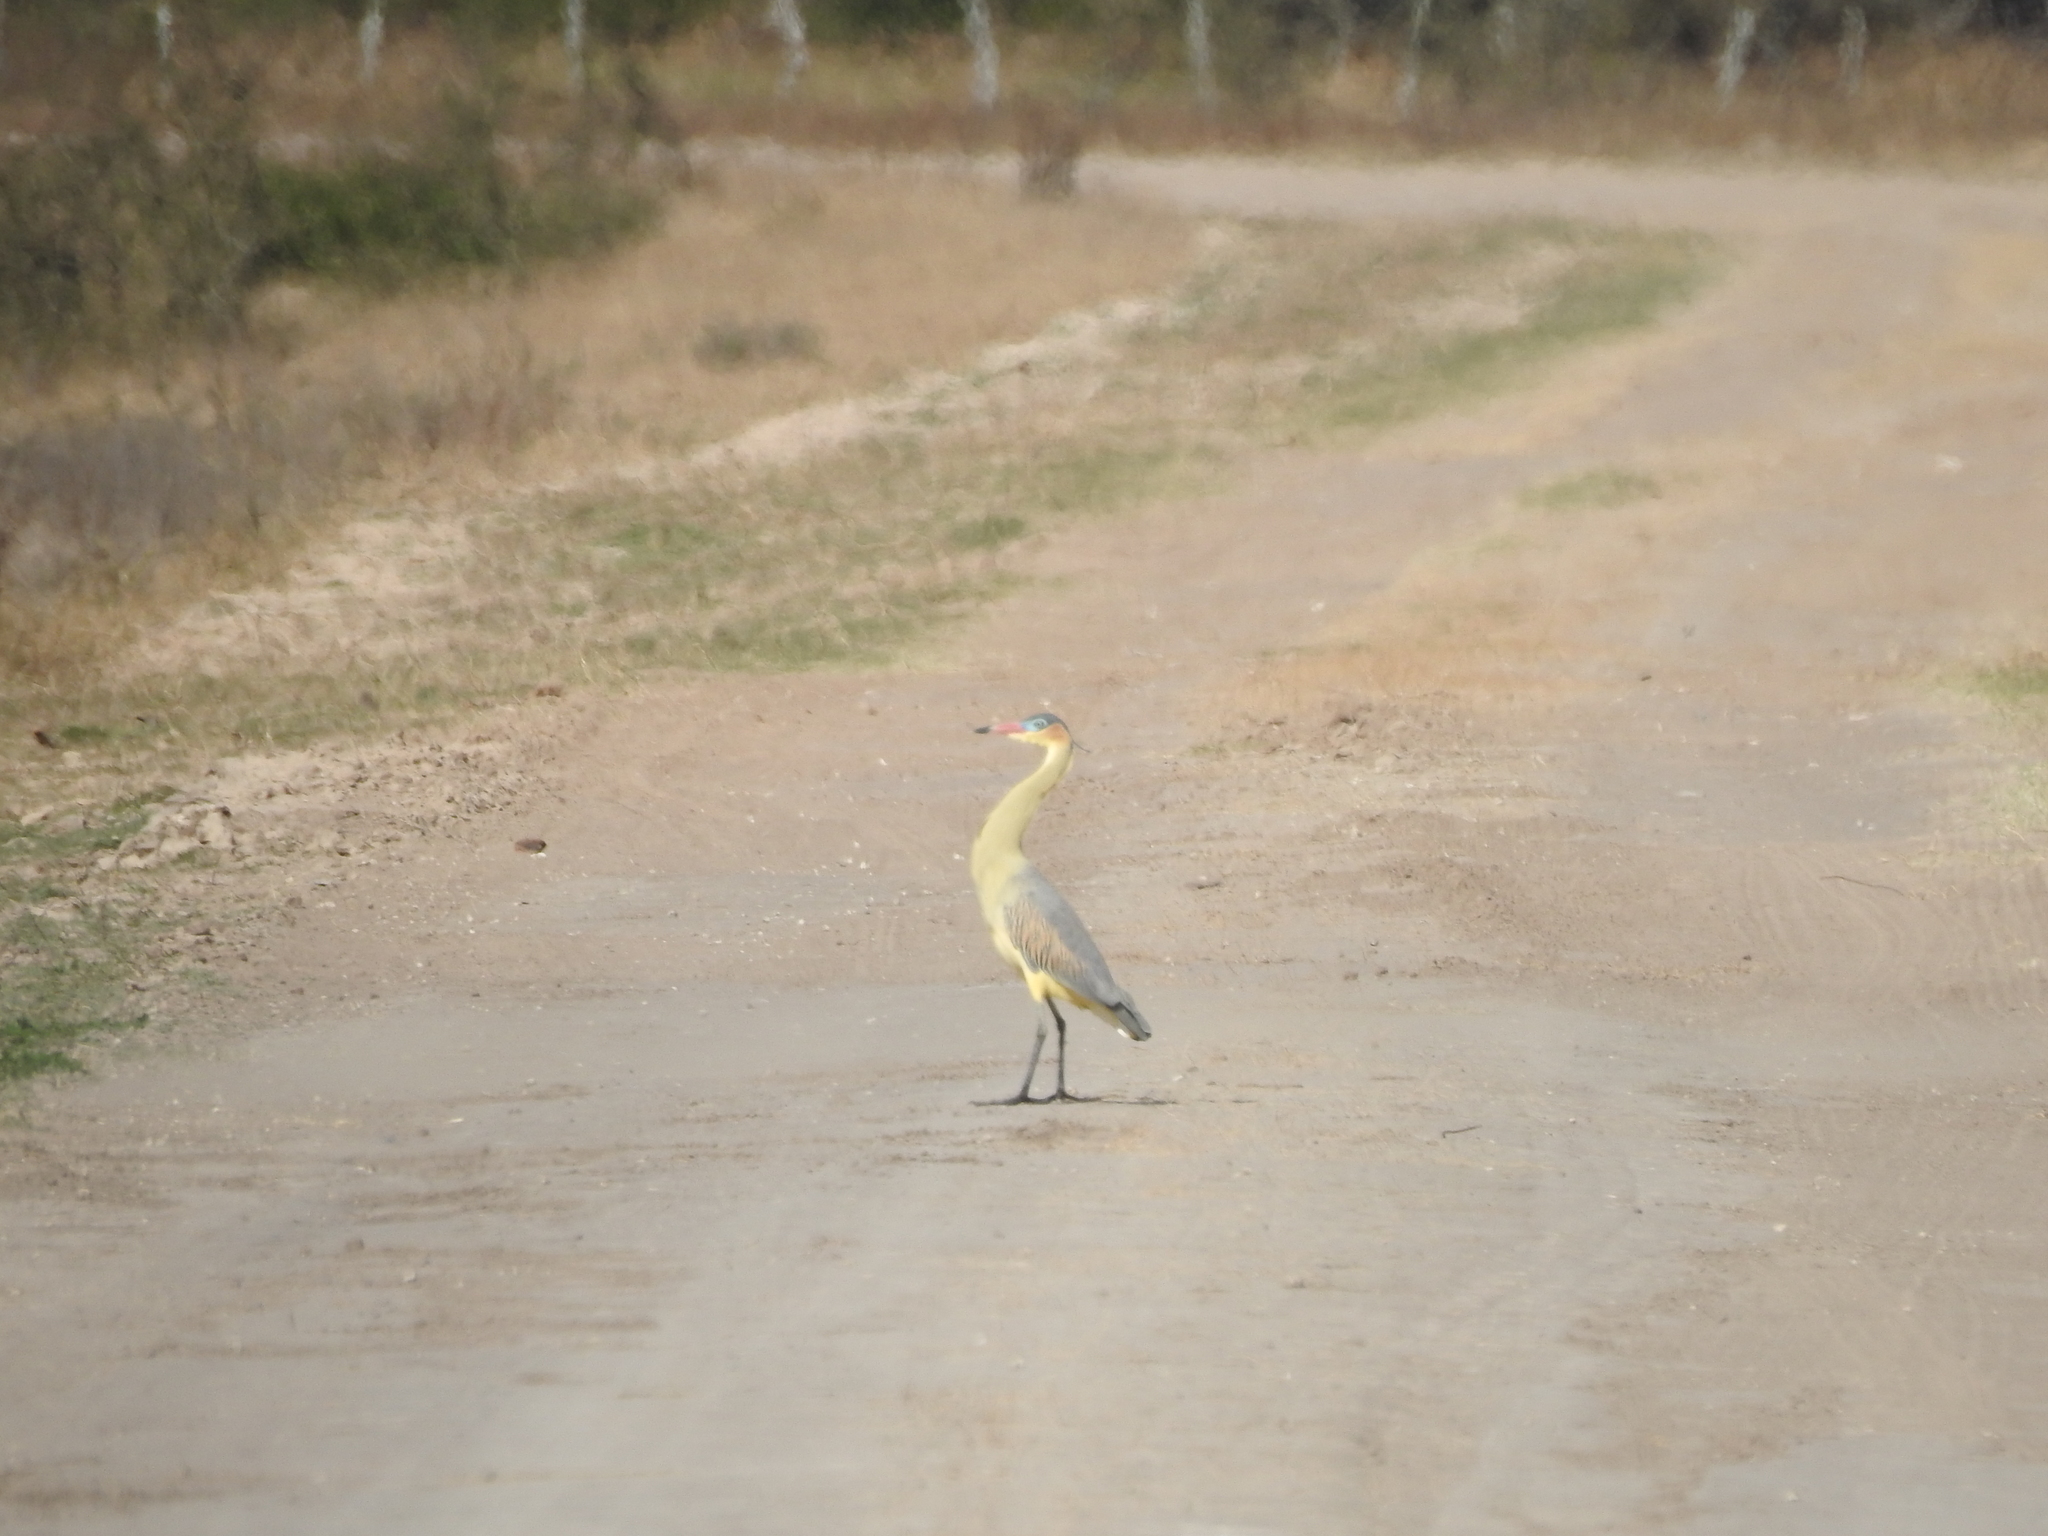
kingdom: Animalia
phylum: Chordata
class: Aves
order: Pelecaniformes
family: Ardeidae
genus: Syrigma
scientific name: Syrigma sibilatrix
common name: Whistling heron
